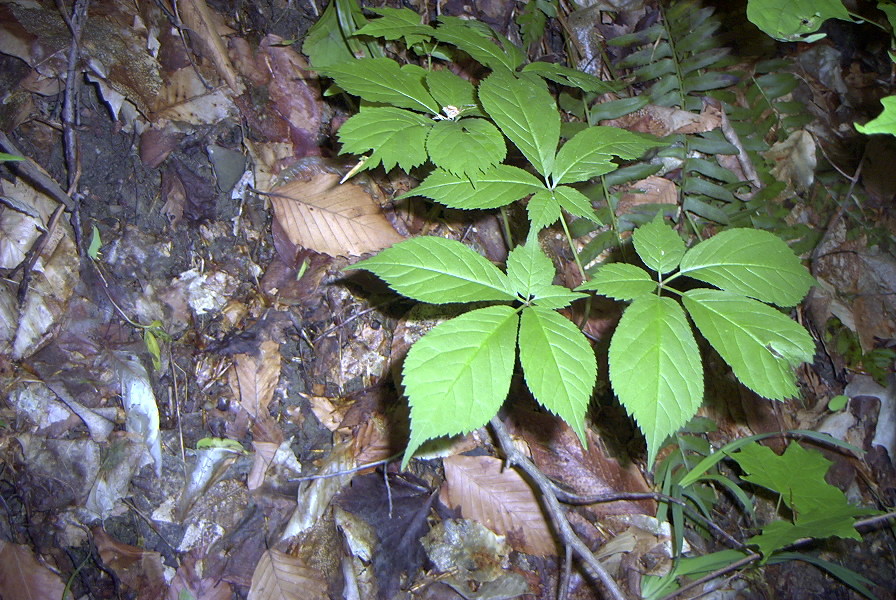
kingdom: Plantae
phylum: Tracheophyta
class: Magnoliopsida
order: Apiales
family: Araliaceae
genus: Panax
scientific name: Panax quinquefolius
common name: American ginseng
